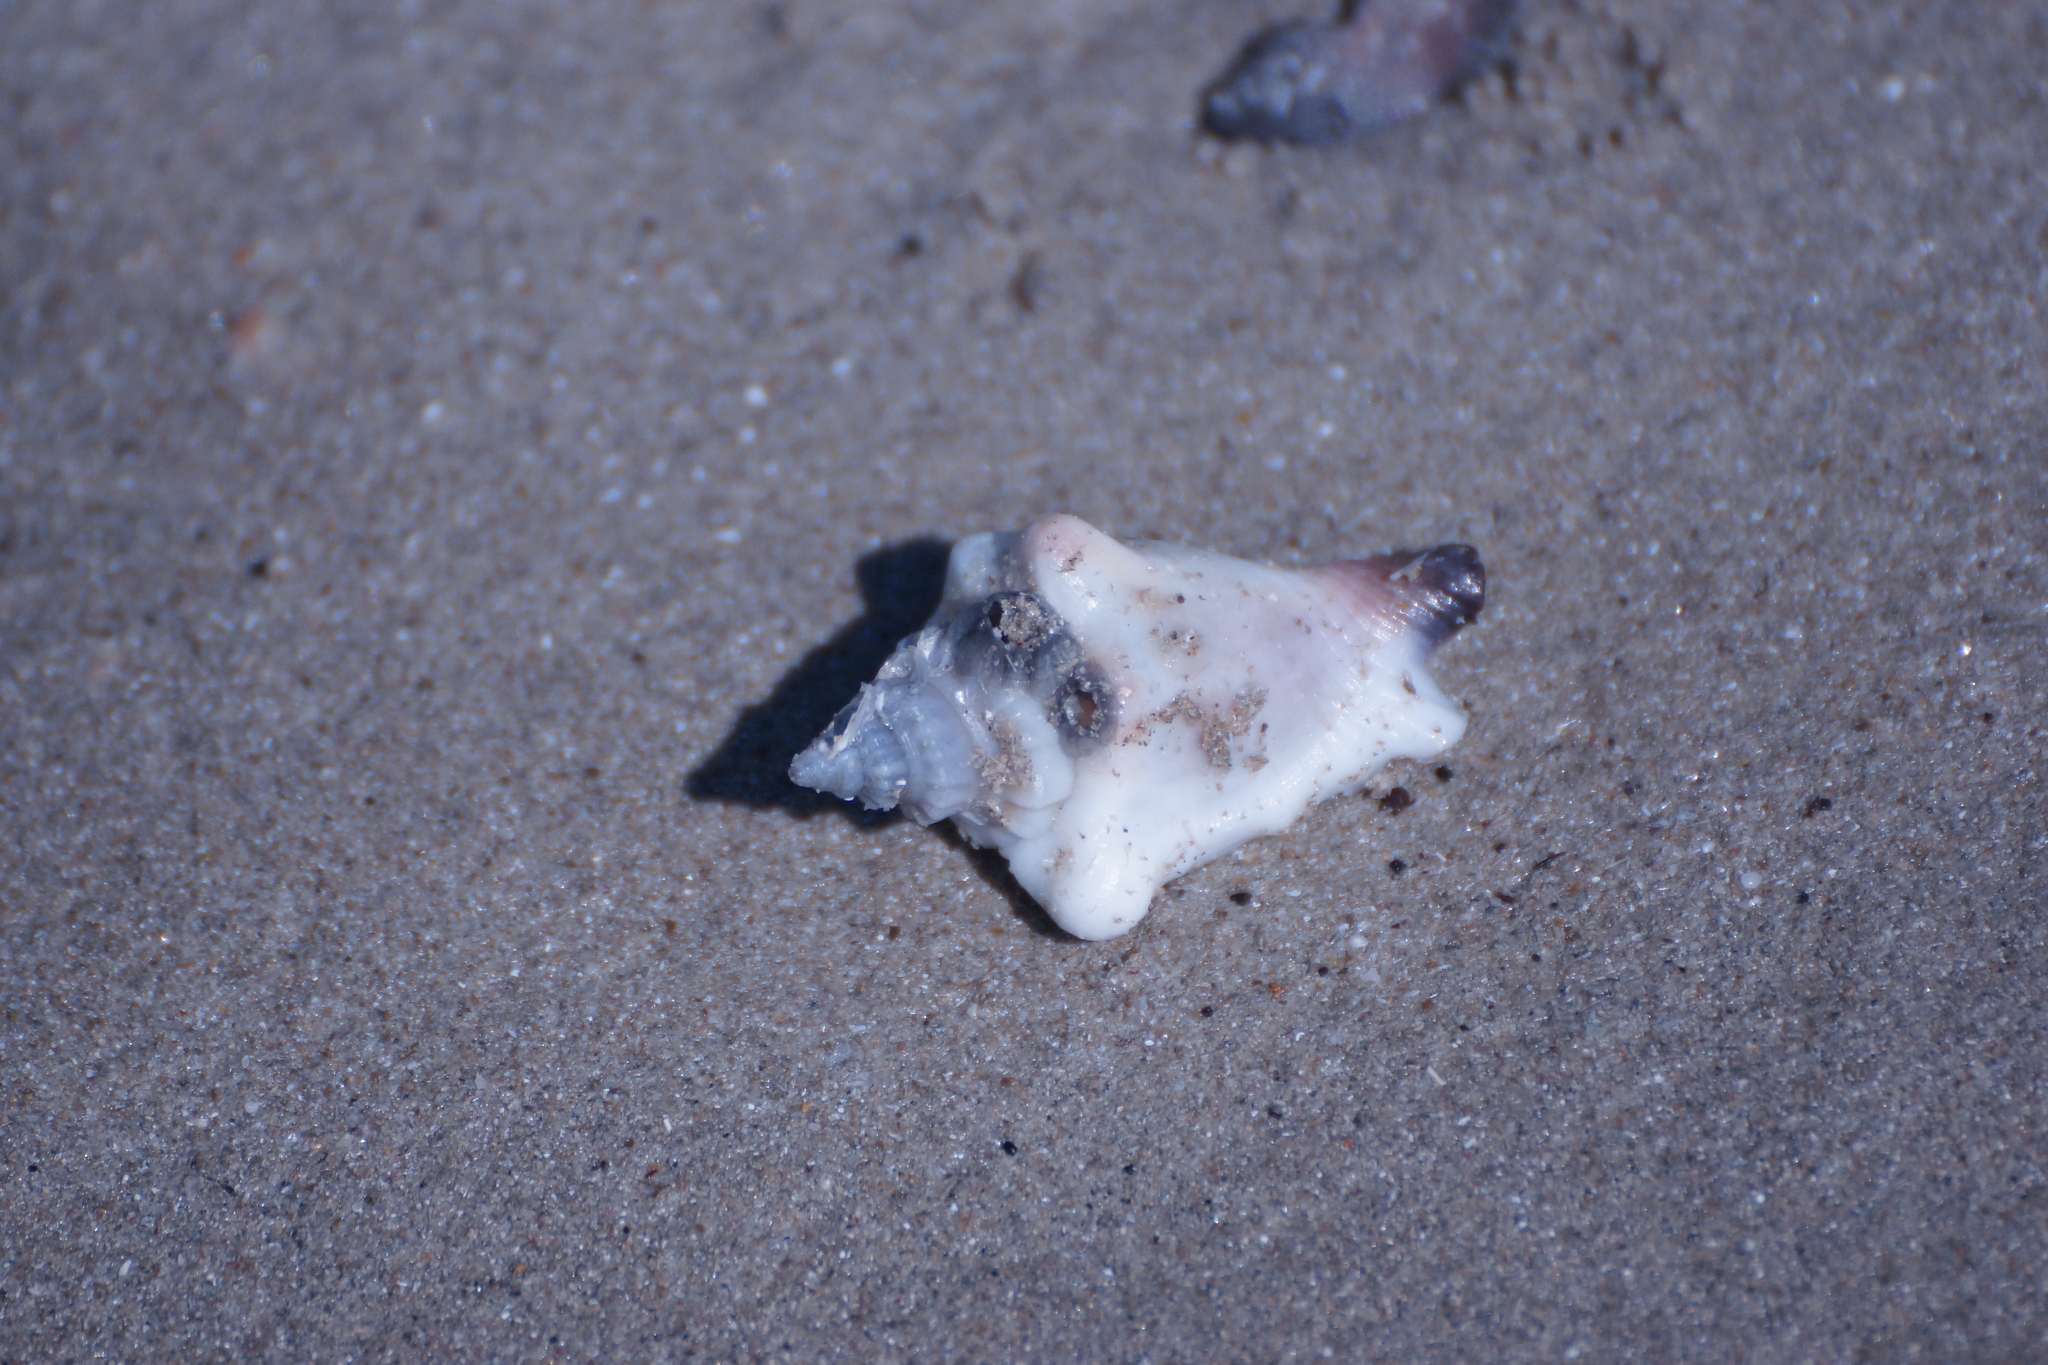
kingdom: Animalia
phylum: Mollusca
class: Gastropoda
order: Littorinimorpha
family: Strombidae
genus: Canarium
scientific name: Canarium orrae
